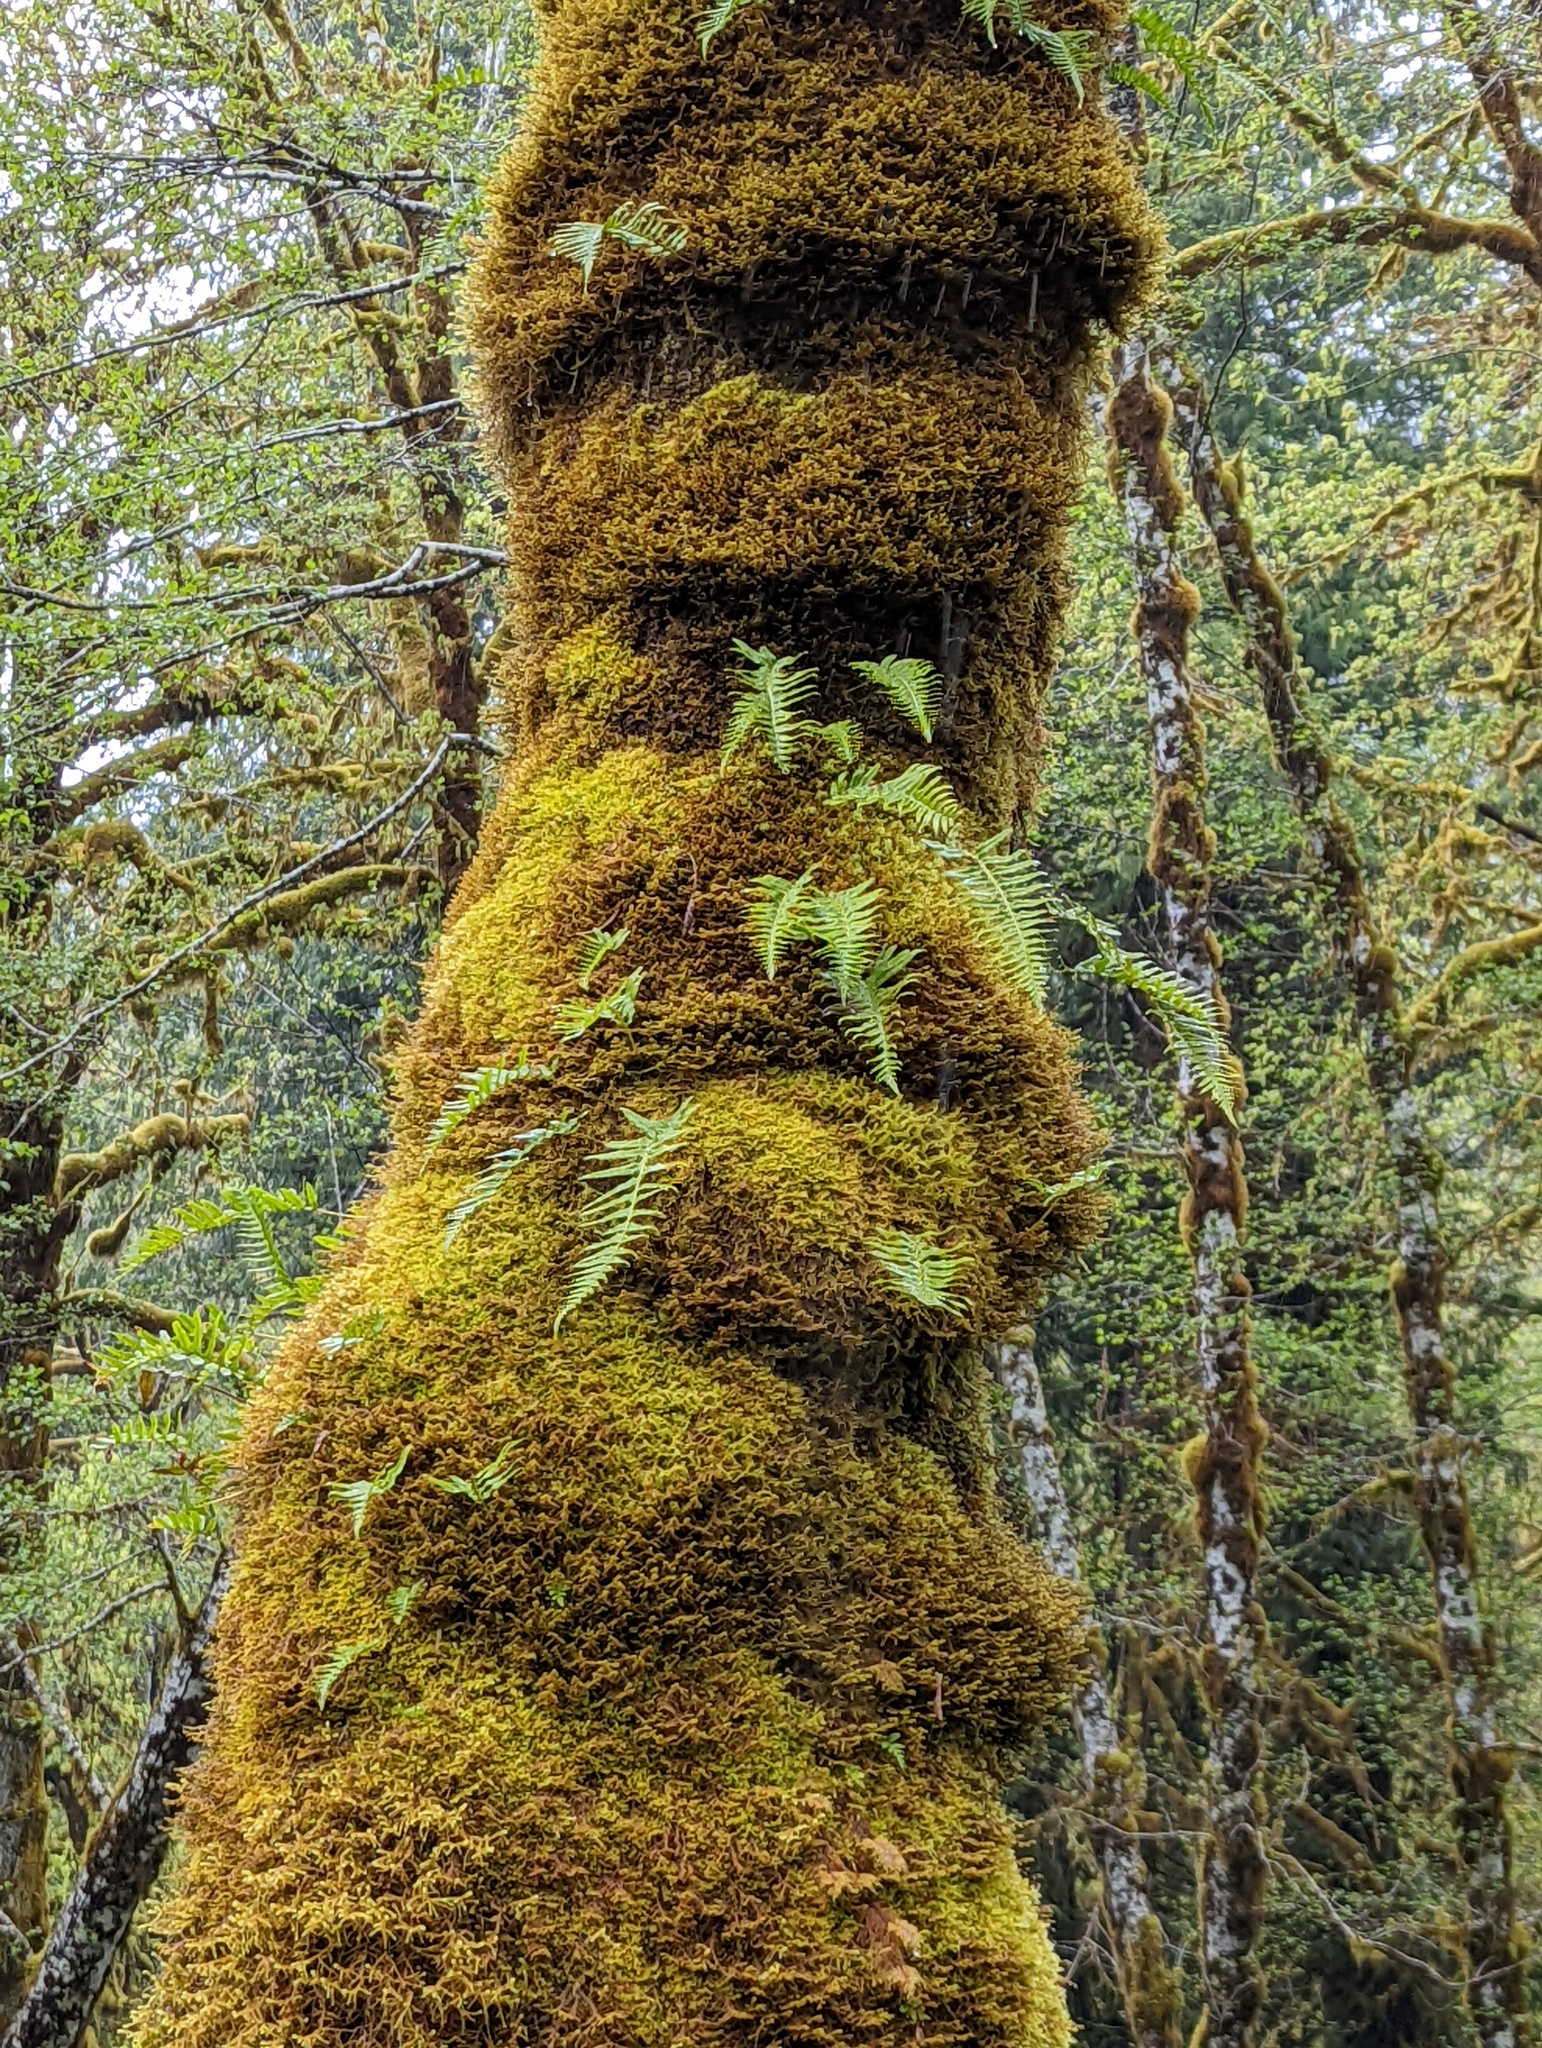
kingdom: Plantae
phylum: Tracheophyta
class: Polypodiopsida
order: Polypodiales
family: Polypodiaceae
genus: Polypodium
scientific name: Polypodium glycyrrhiza
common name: Licorice fern
